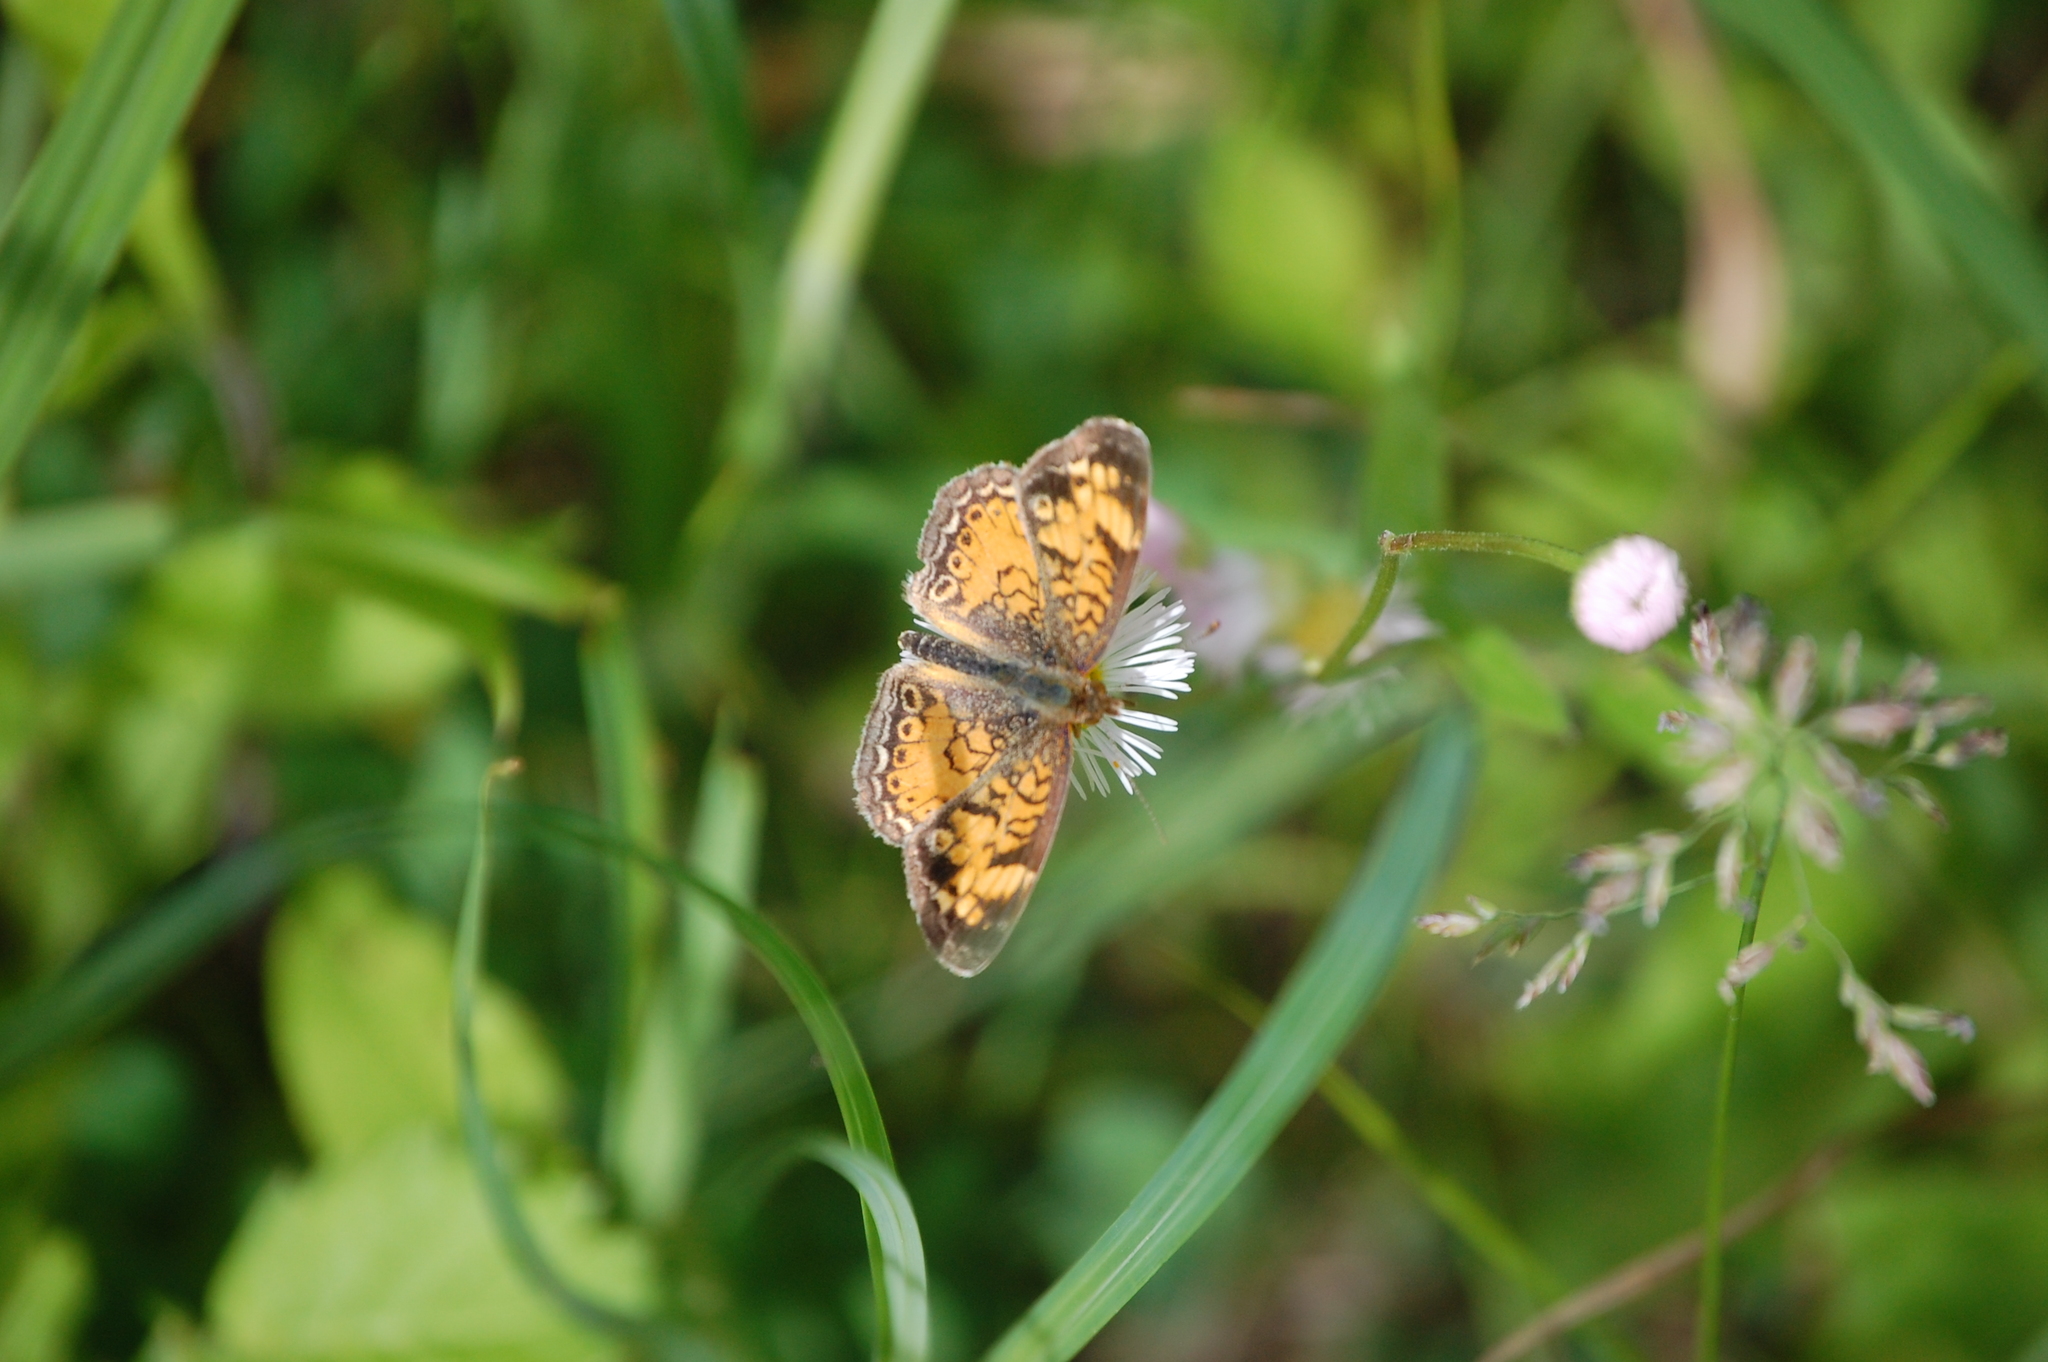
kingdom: Animalia
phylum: Arthropoda
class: Insecta
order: Lepidoptera
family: Nymphalidae
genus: Phyciodes
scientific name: Phyciodes tharos
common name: Pearl crescent
